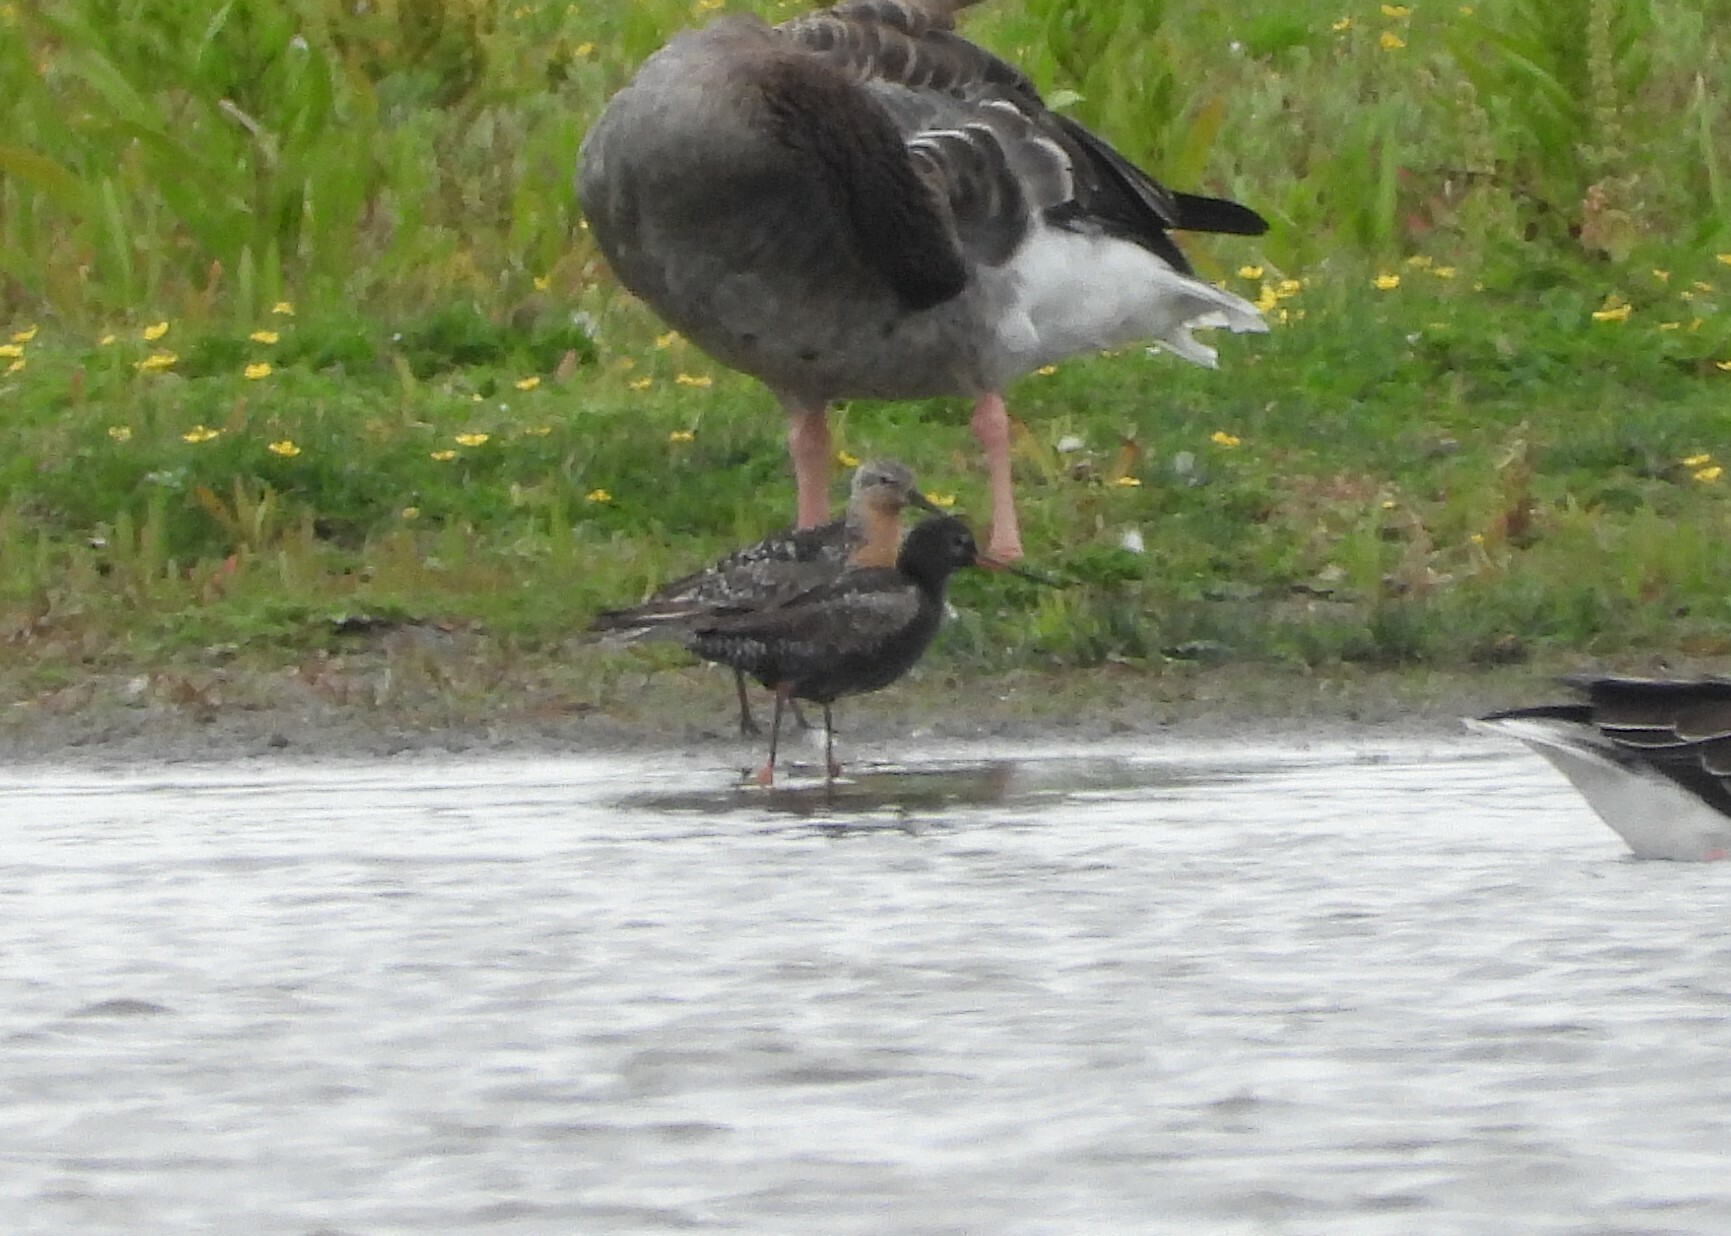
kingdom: Animalia
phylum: Chordata
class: Aves
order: Charadriiformes
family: Scolopacidae
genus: Tringa
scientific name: Tringa erythropus
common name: Spotted redshank
